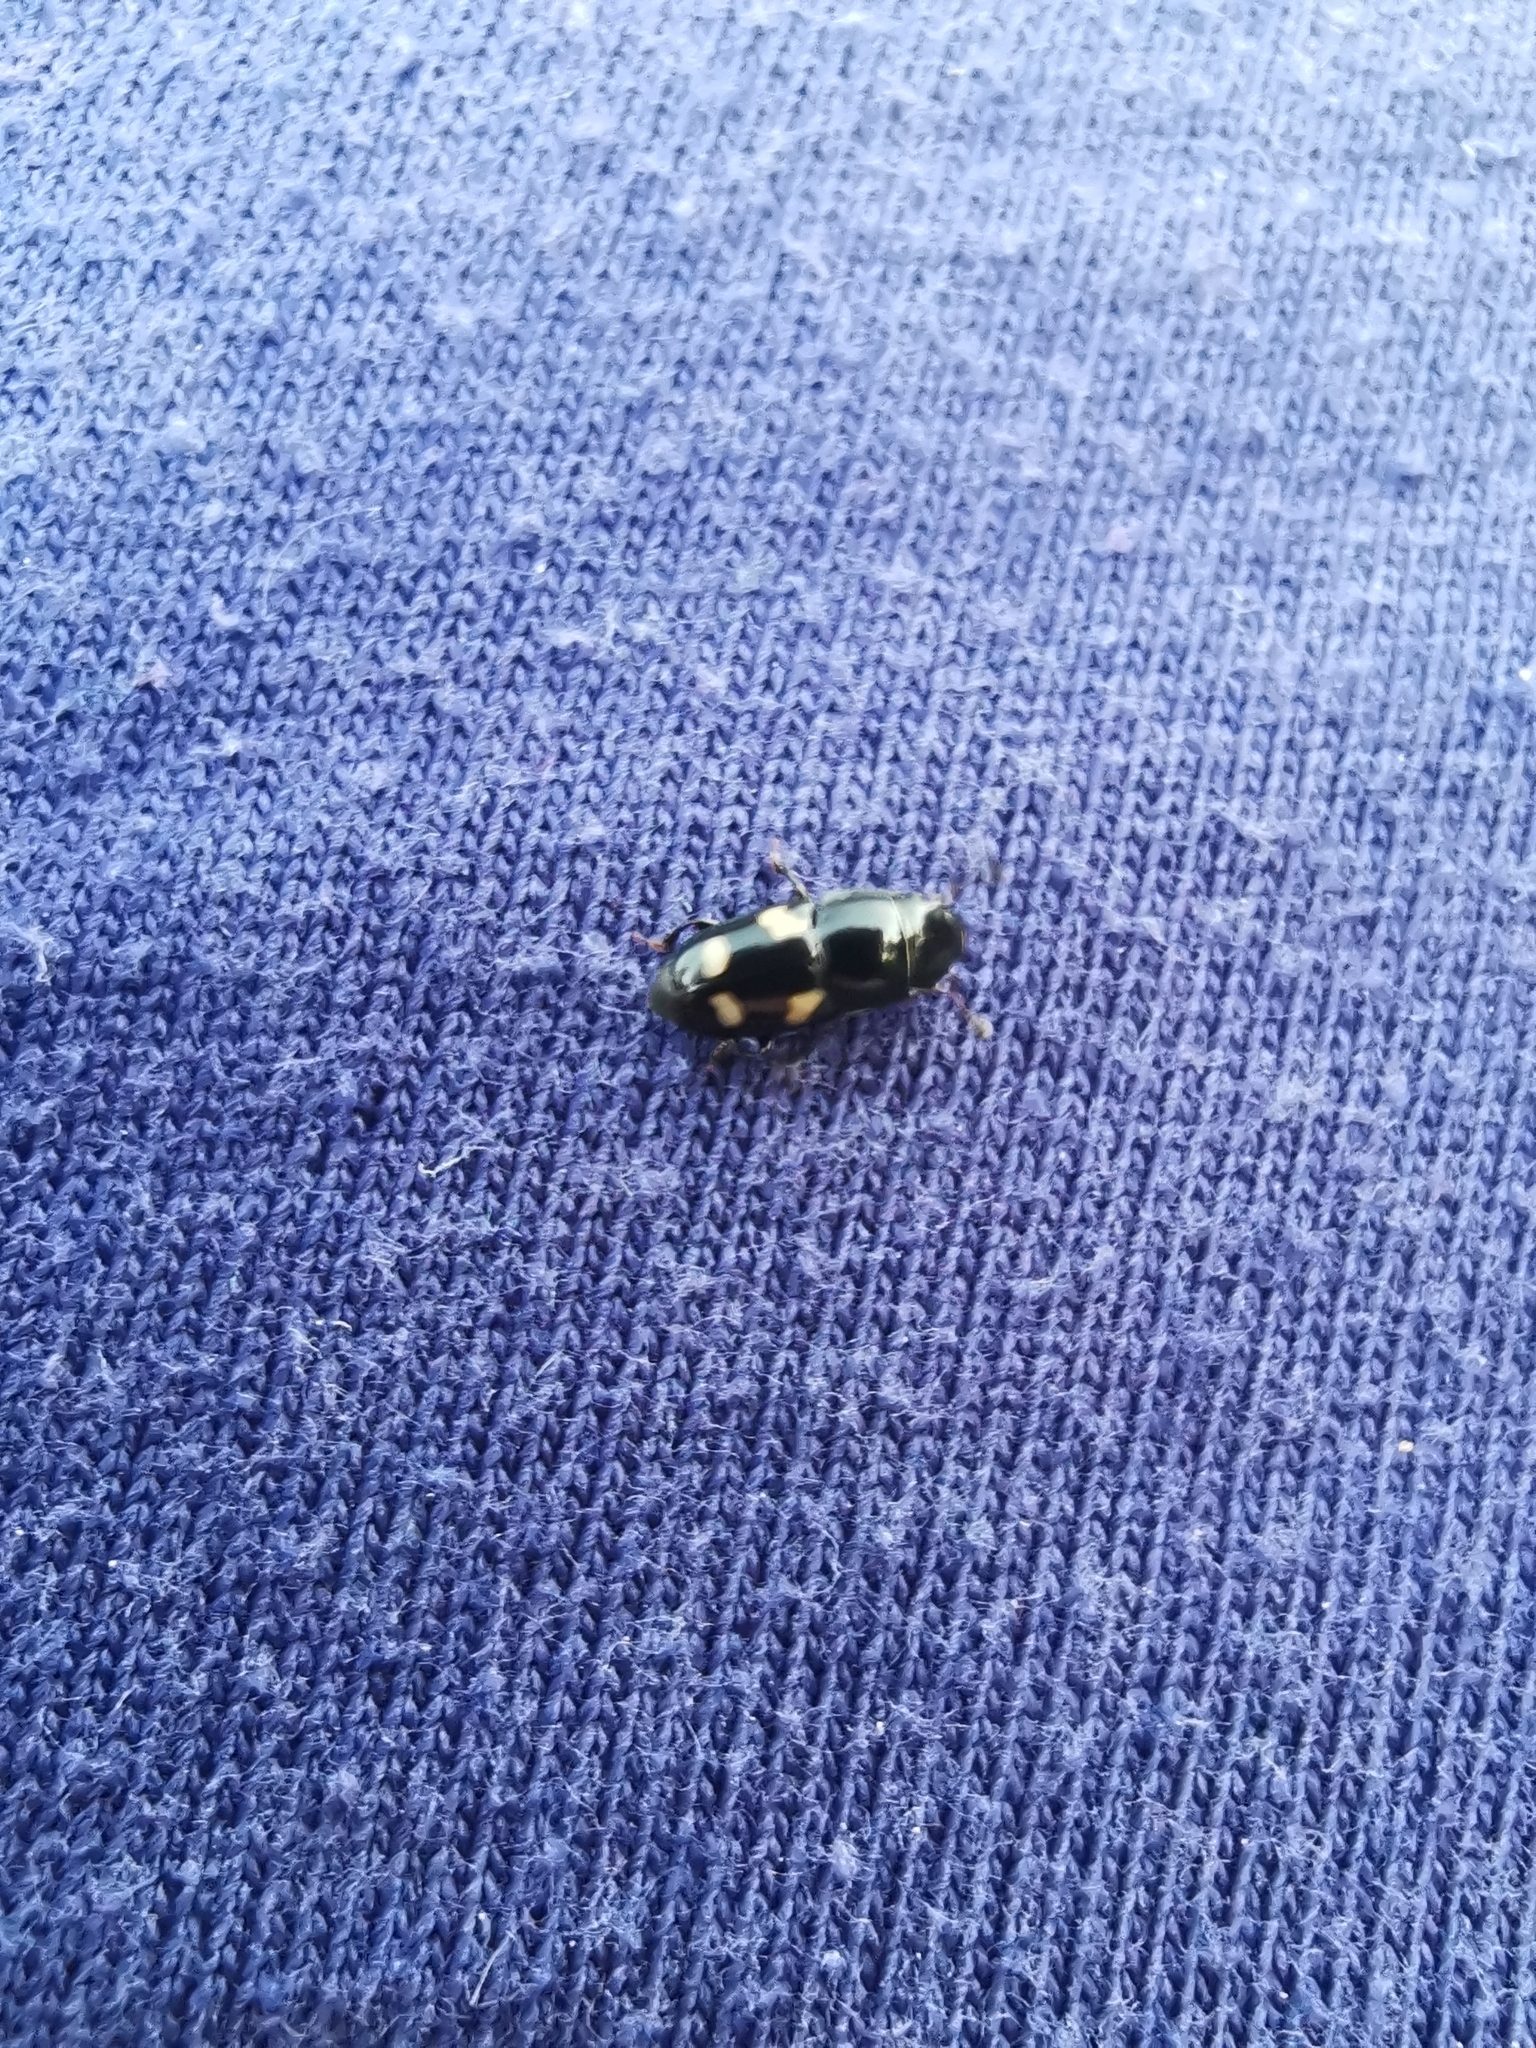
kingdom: Animalia
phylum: Arthropoda
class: Insecta
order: Coleoptera
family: Nitidulidae
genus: Glischrochilus
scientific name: Glischrochilus quadrisignatus
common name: Picnic beetle
